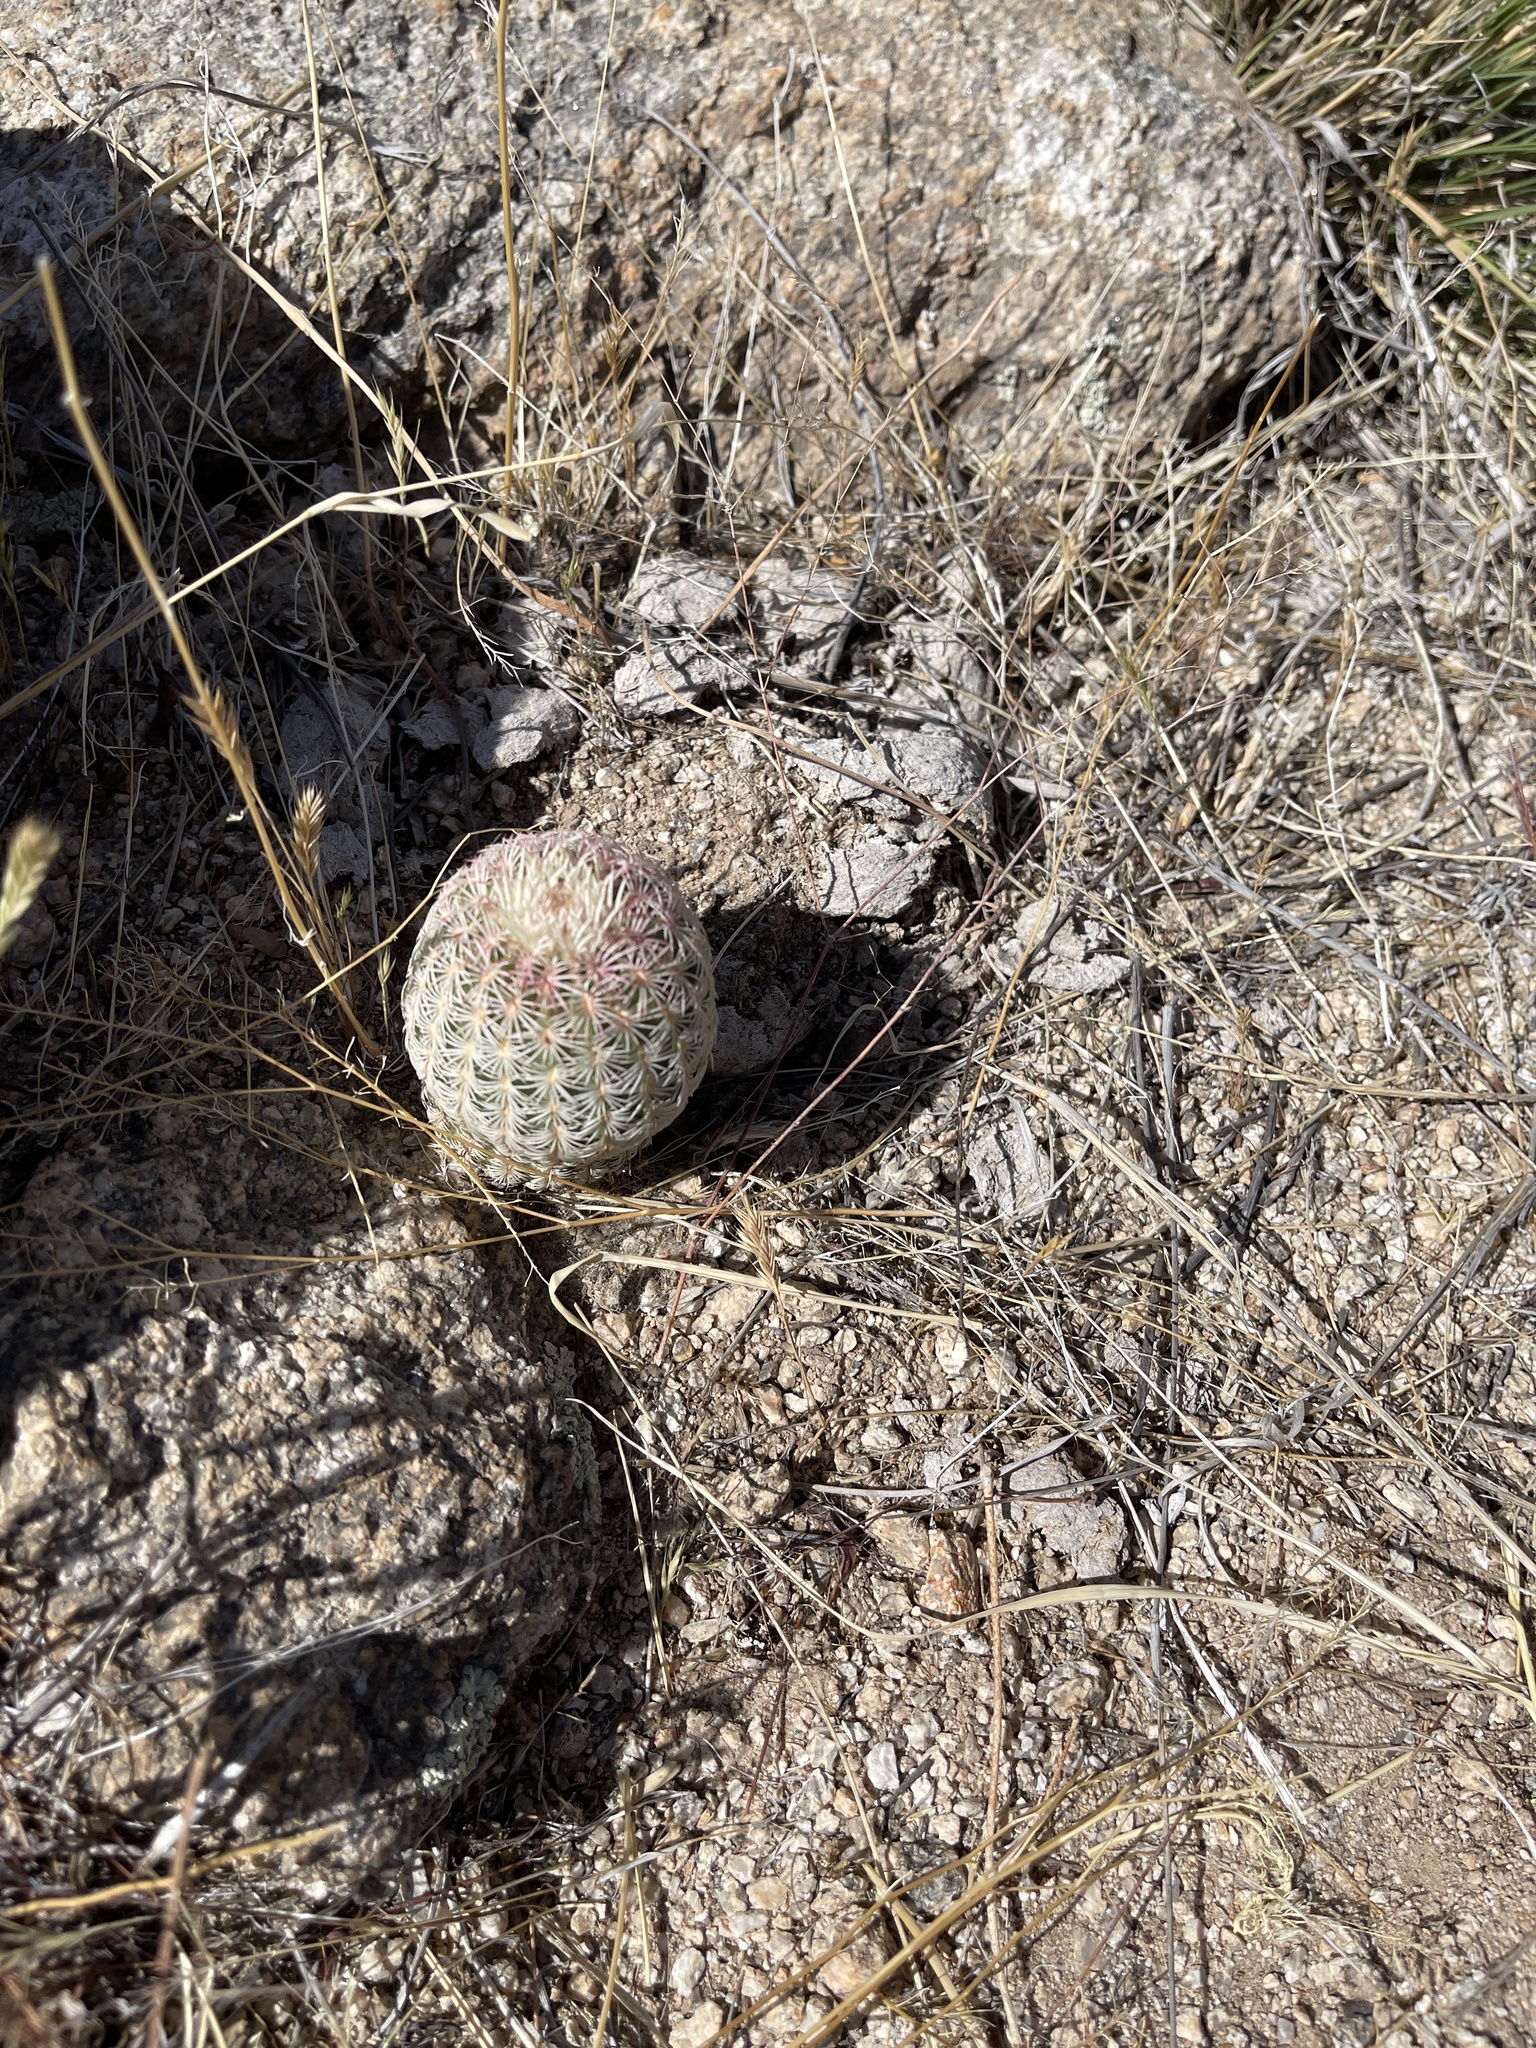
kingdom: Plantae
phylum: Tracheophyta
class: Magnoliopsida
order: Caryophyllales
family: Cactaceae
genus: Echinocereus
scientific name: Echinocereus rigidissimus
